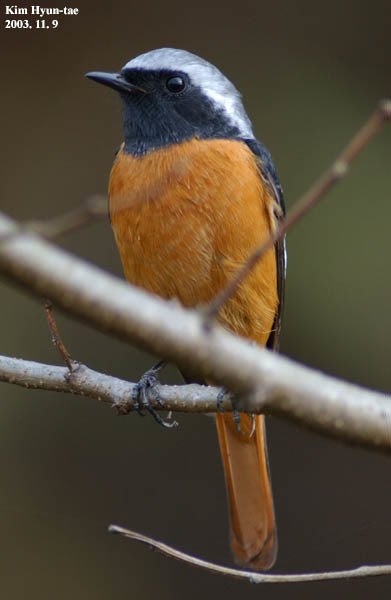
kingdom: Animalia
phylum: Chordata
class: Aves
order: Passeriformes
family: Muscicapidae
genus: Phoenicurus
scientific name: Phoenicurus auroreus
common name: Daurian redstart
